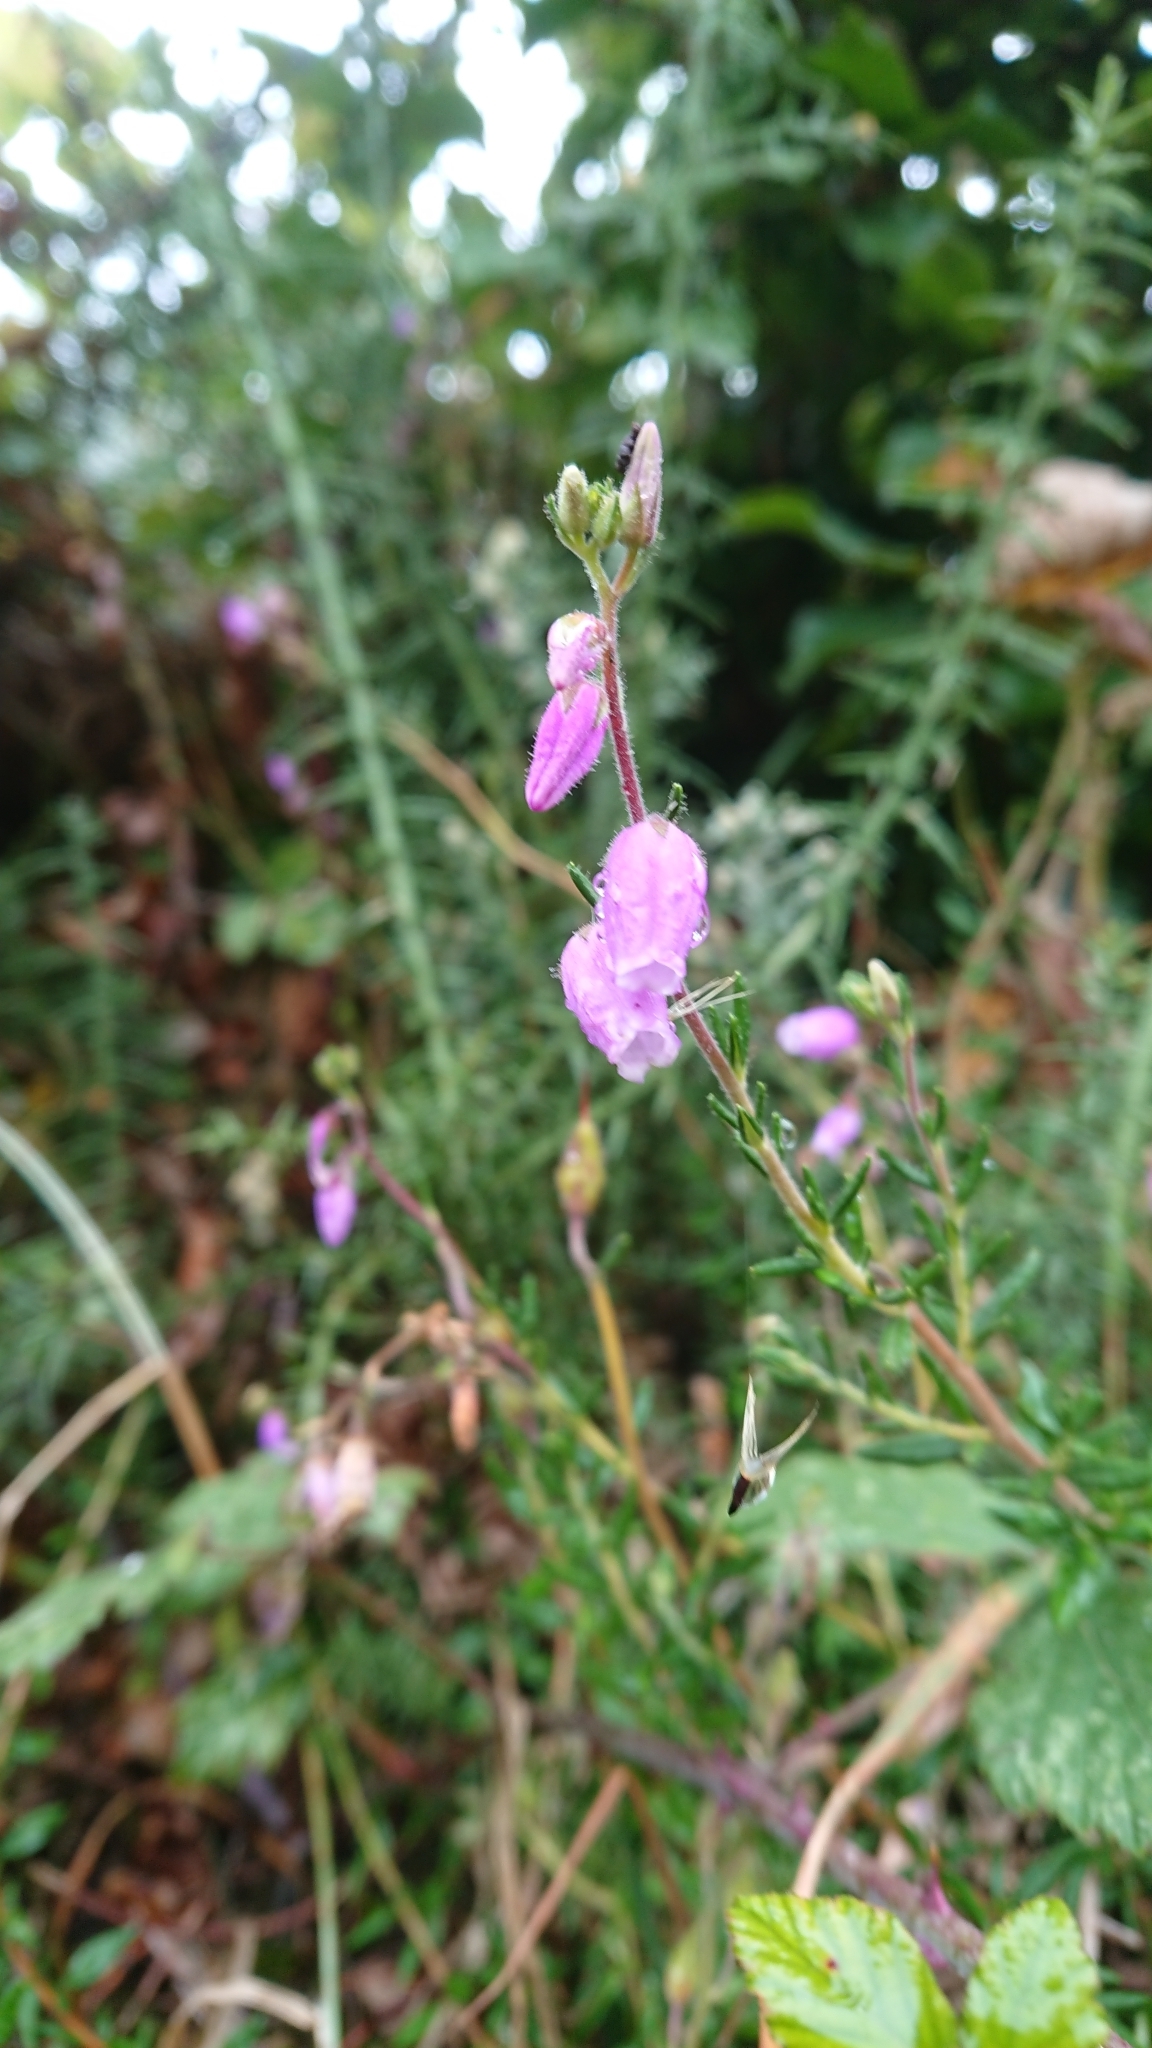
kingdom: Plantae
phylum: Tracheophyta
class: Magnoliopsida
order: Ericales
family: Ericaceae
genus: Daboecia
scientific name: Daboecia cantabrica
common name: St. dabeoc's-heath
